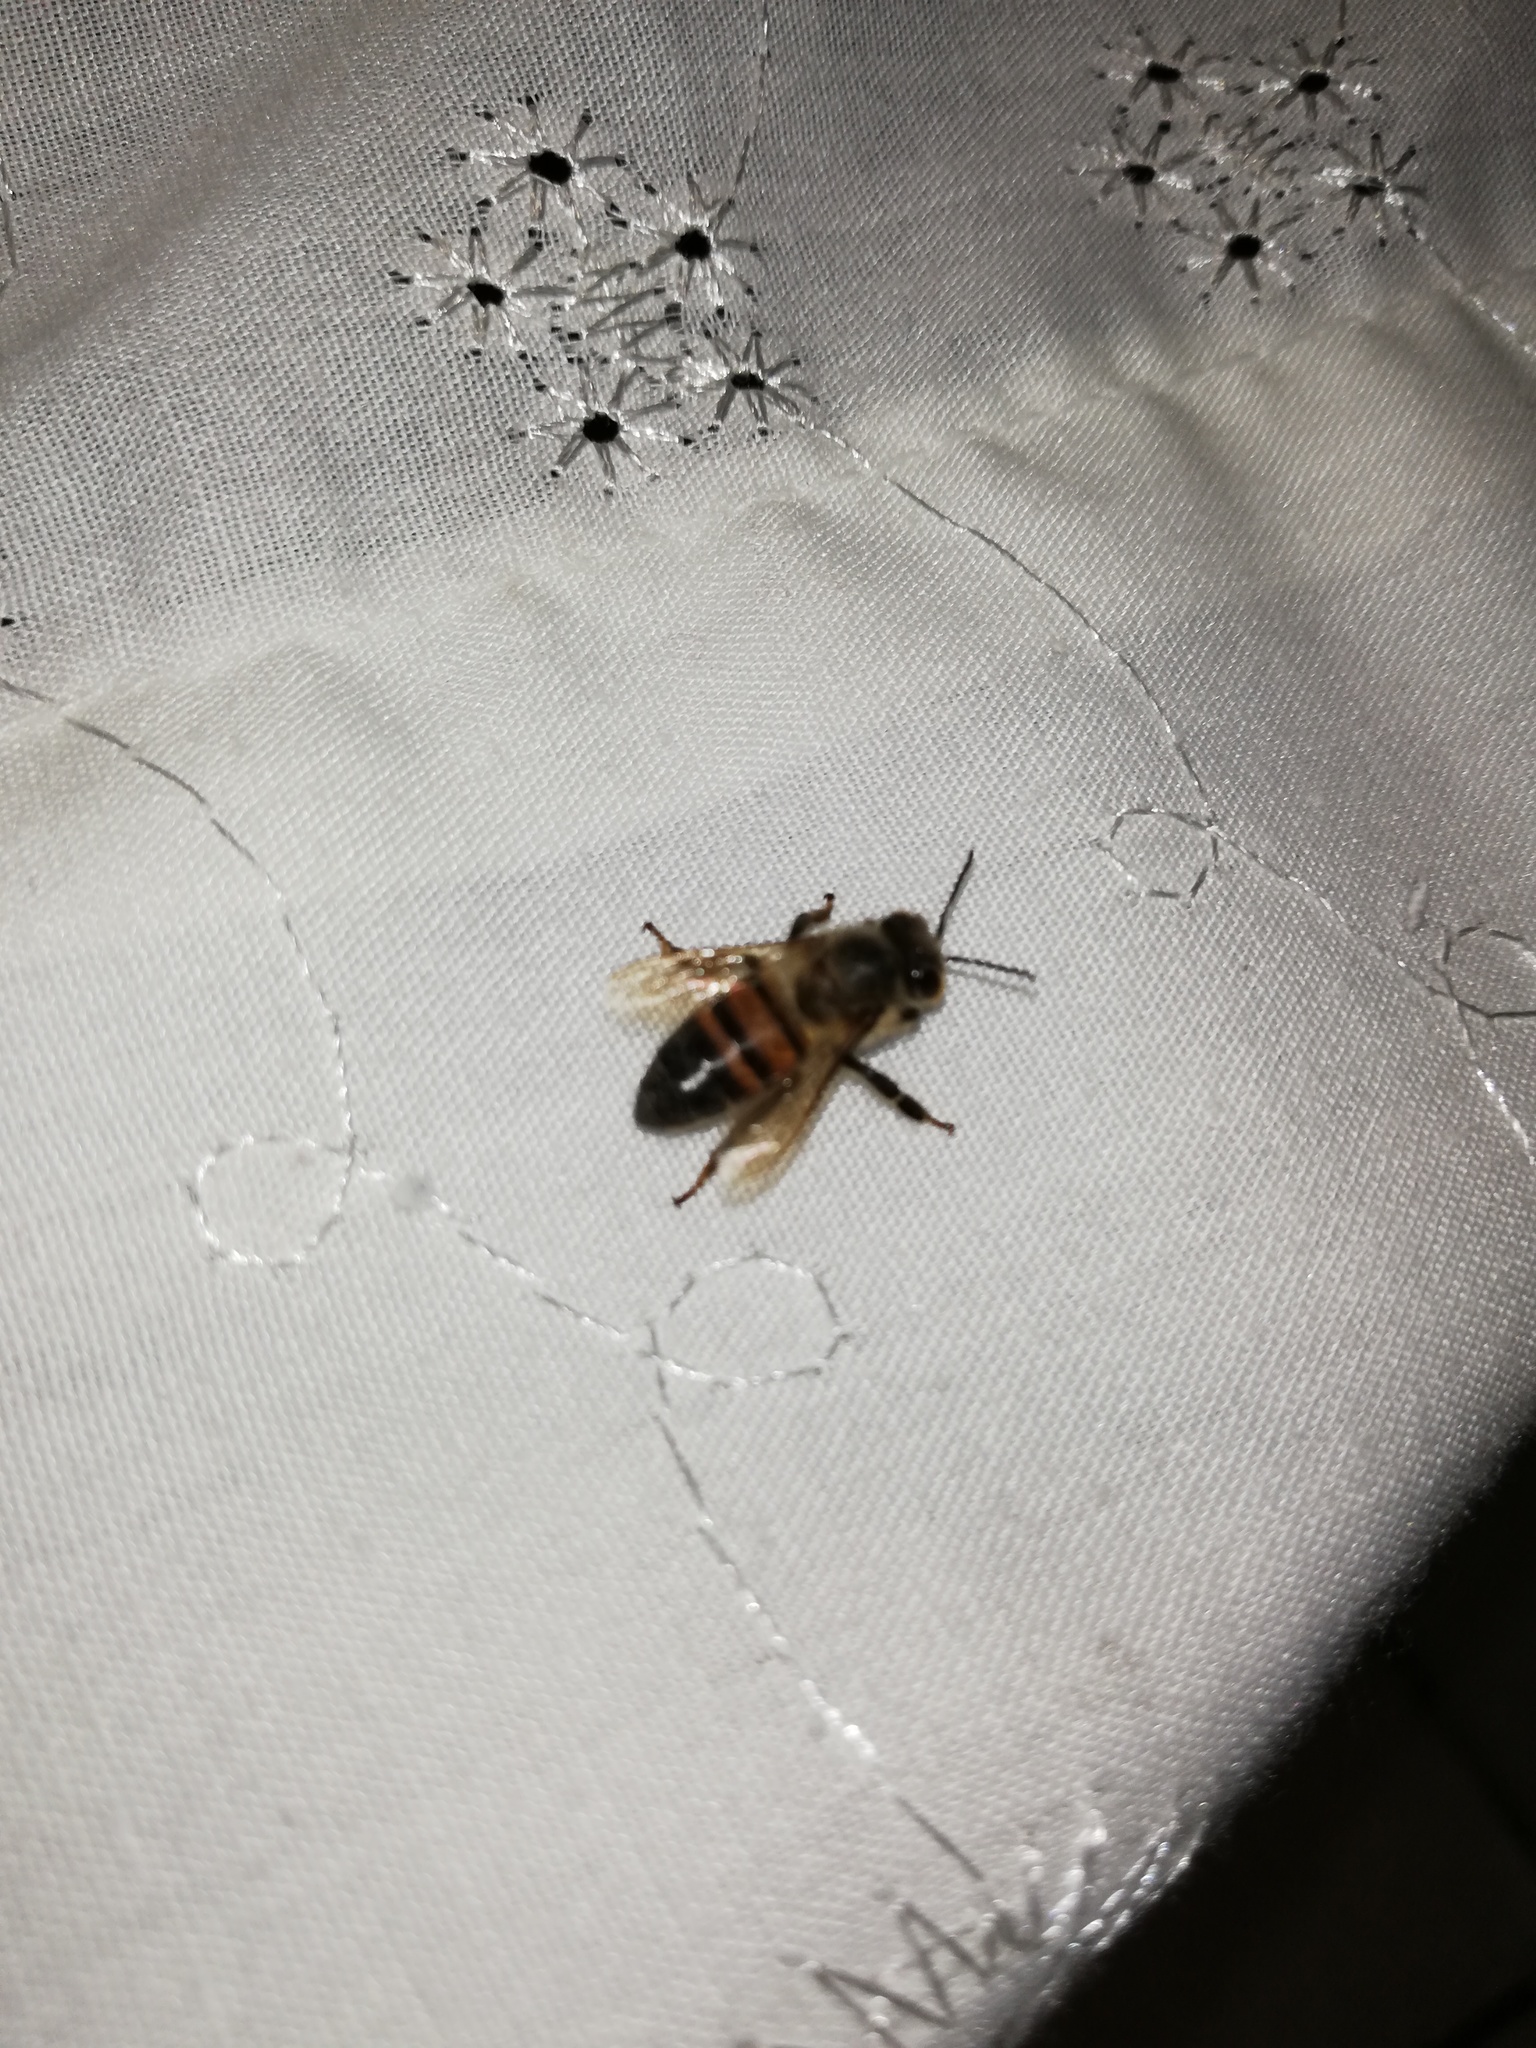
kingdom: Animalia
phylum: Arthropoda
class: Insecta
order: Hymenoptera
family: Apidae
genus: Apis
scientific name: Apis mellifera
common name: Honey bee
